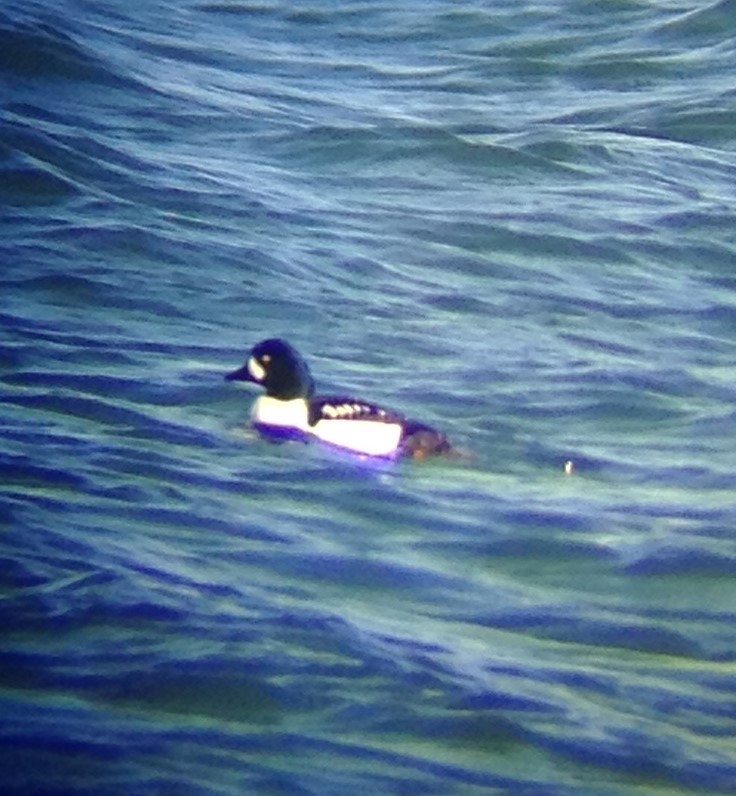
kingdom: Animalia
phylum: Chordata
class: Aves
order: Anseriformes
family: Anatidae
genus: Bucephala
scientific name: Bucephala islandica
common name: Barrow's goldeneye
